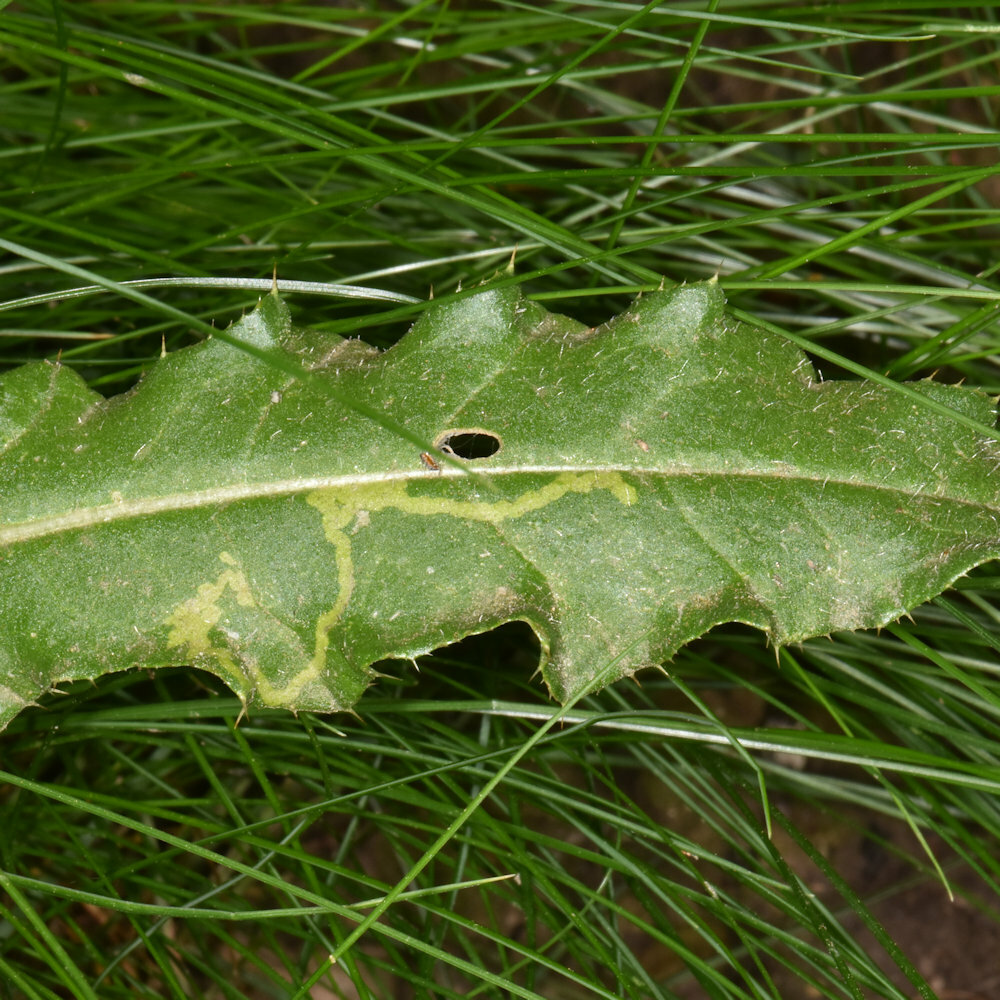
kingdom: Animalia
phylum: Arthropoda
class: Insecta
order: Diptera
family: Agromyzidae
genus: Phytomyza
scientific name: Phytomyza spinaciae
